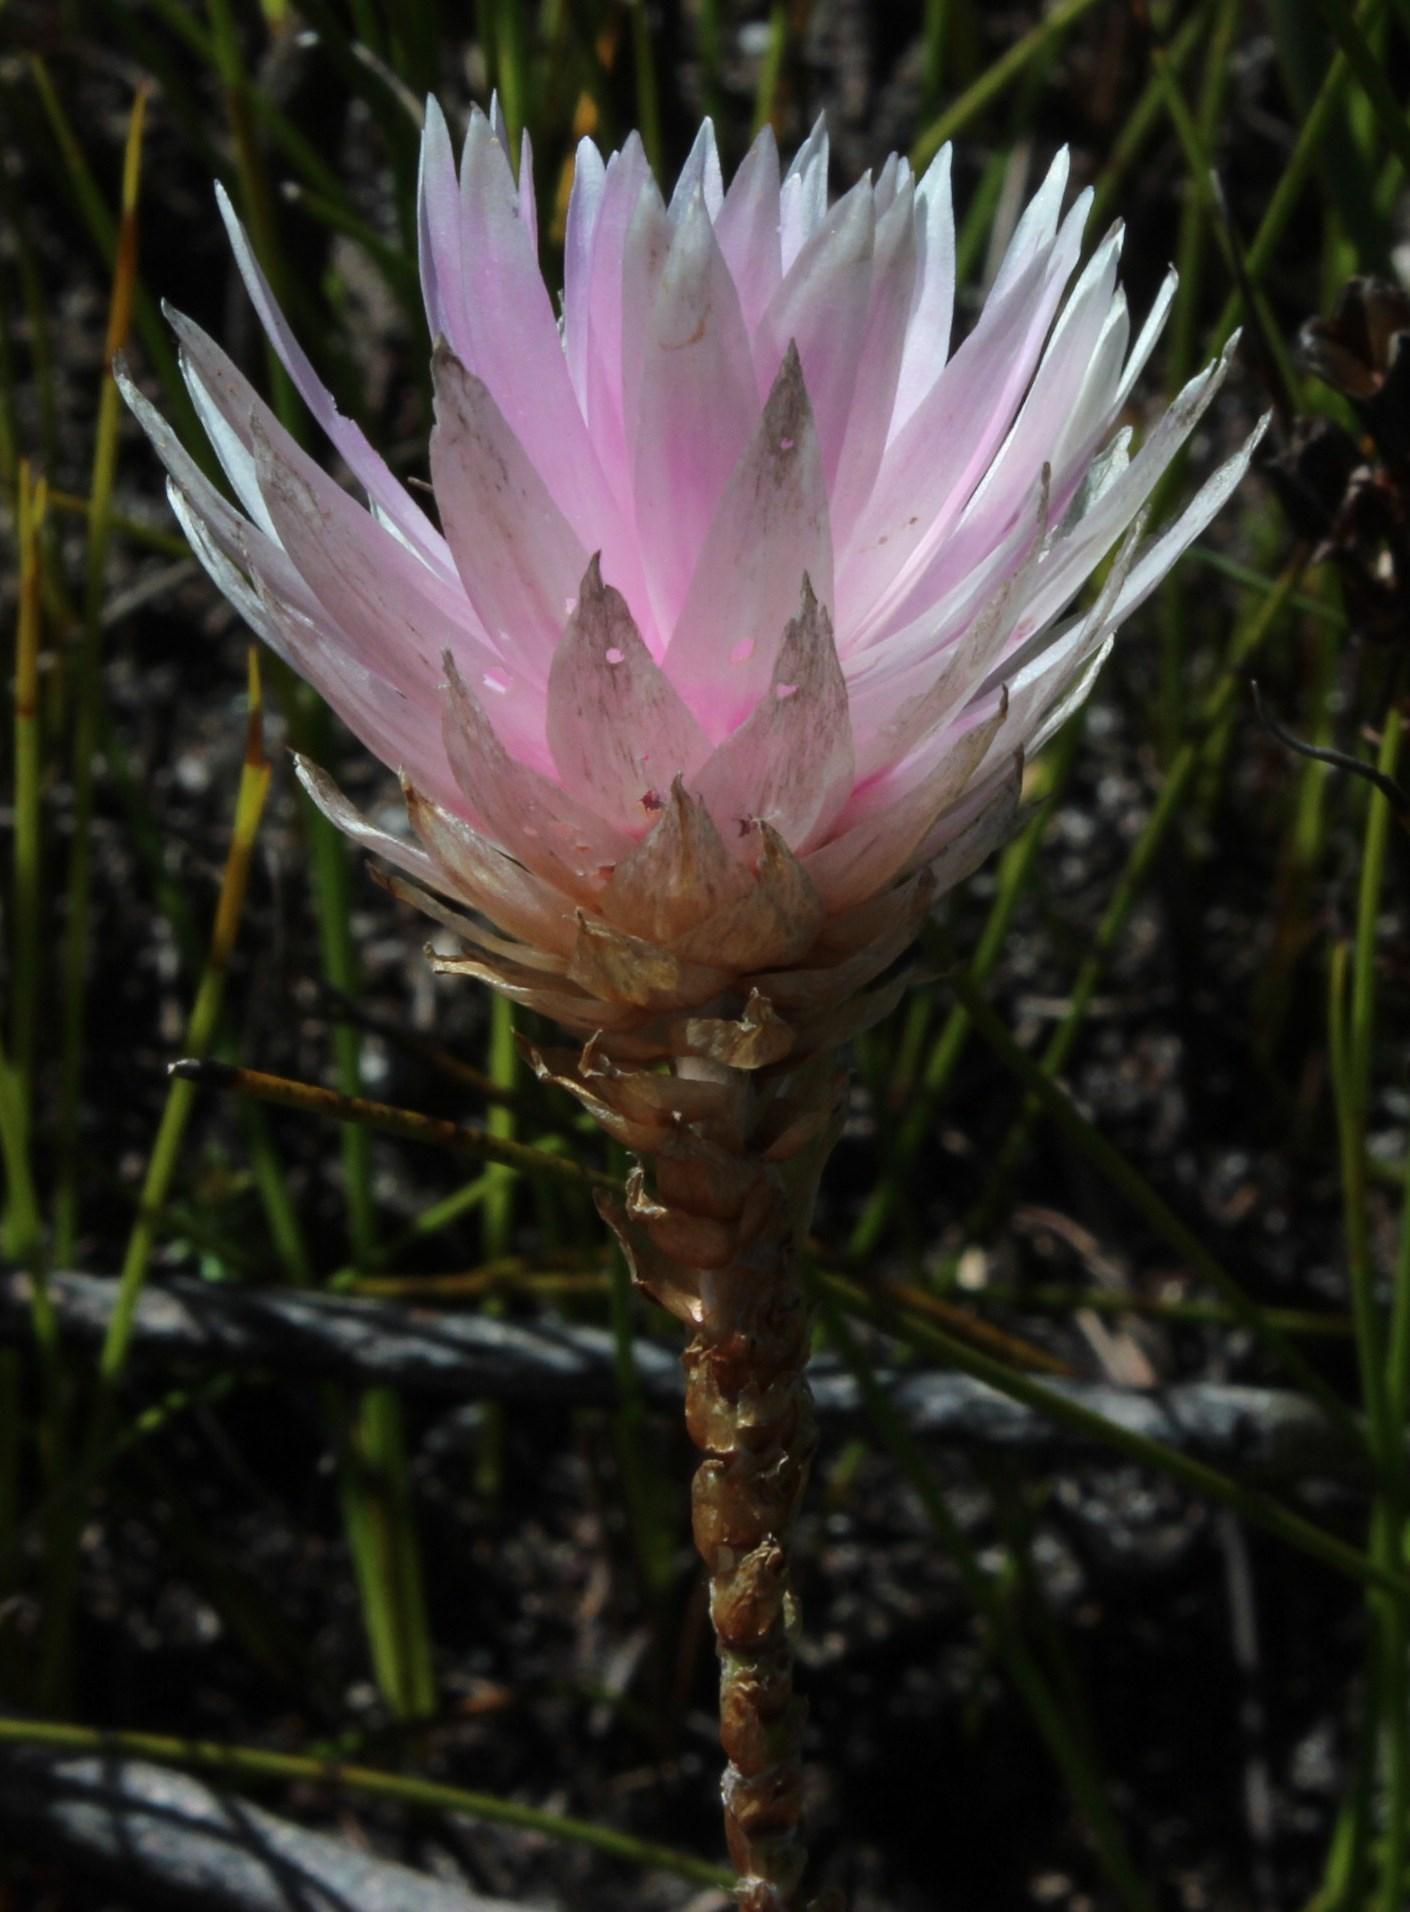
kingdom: Plantae
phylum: Tracheophyta
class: Magnoliopsida
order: Asterales
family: Asteraceae
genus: Edmondia
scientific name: Edmondia pinifolia
